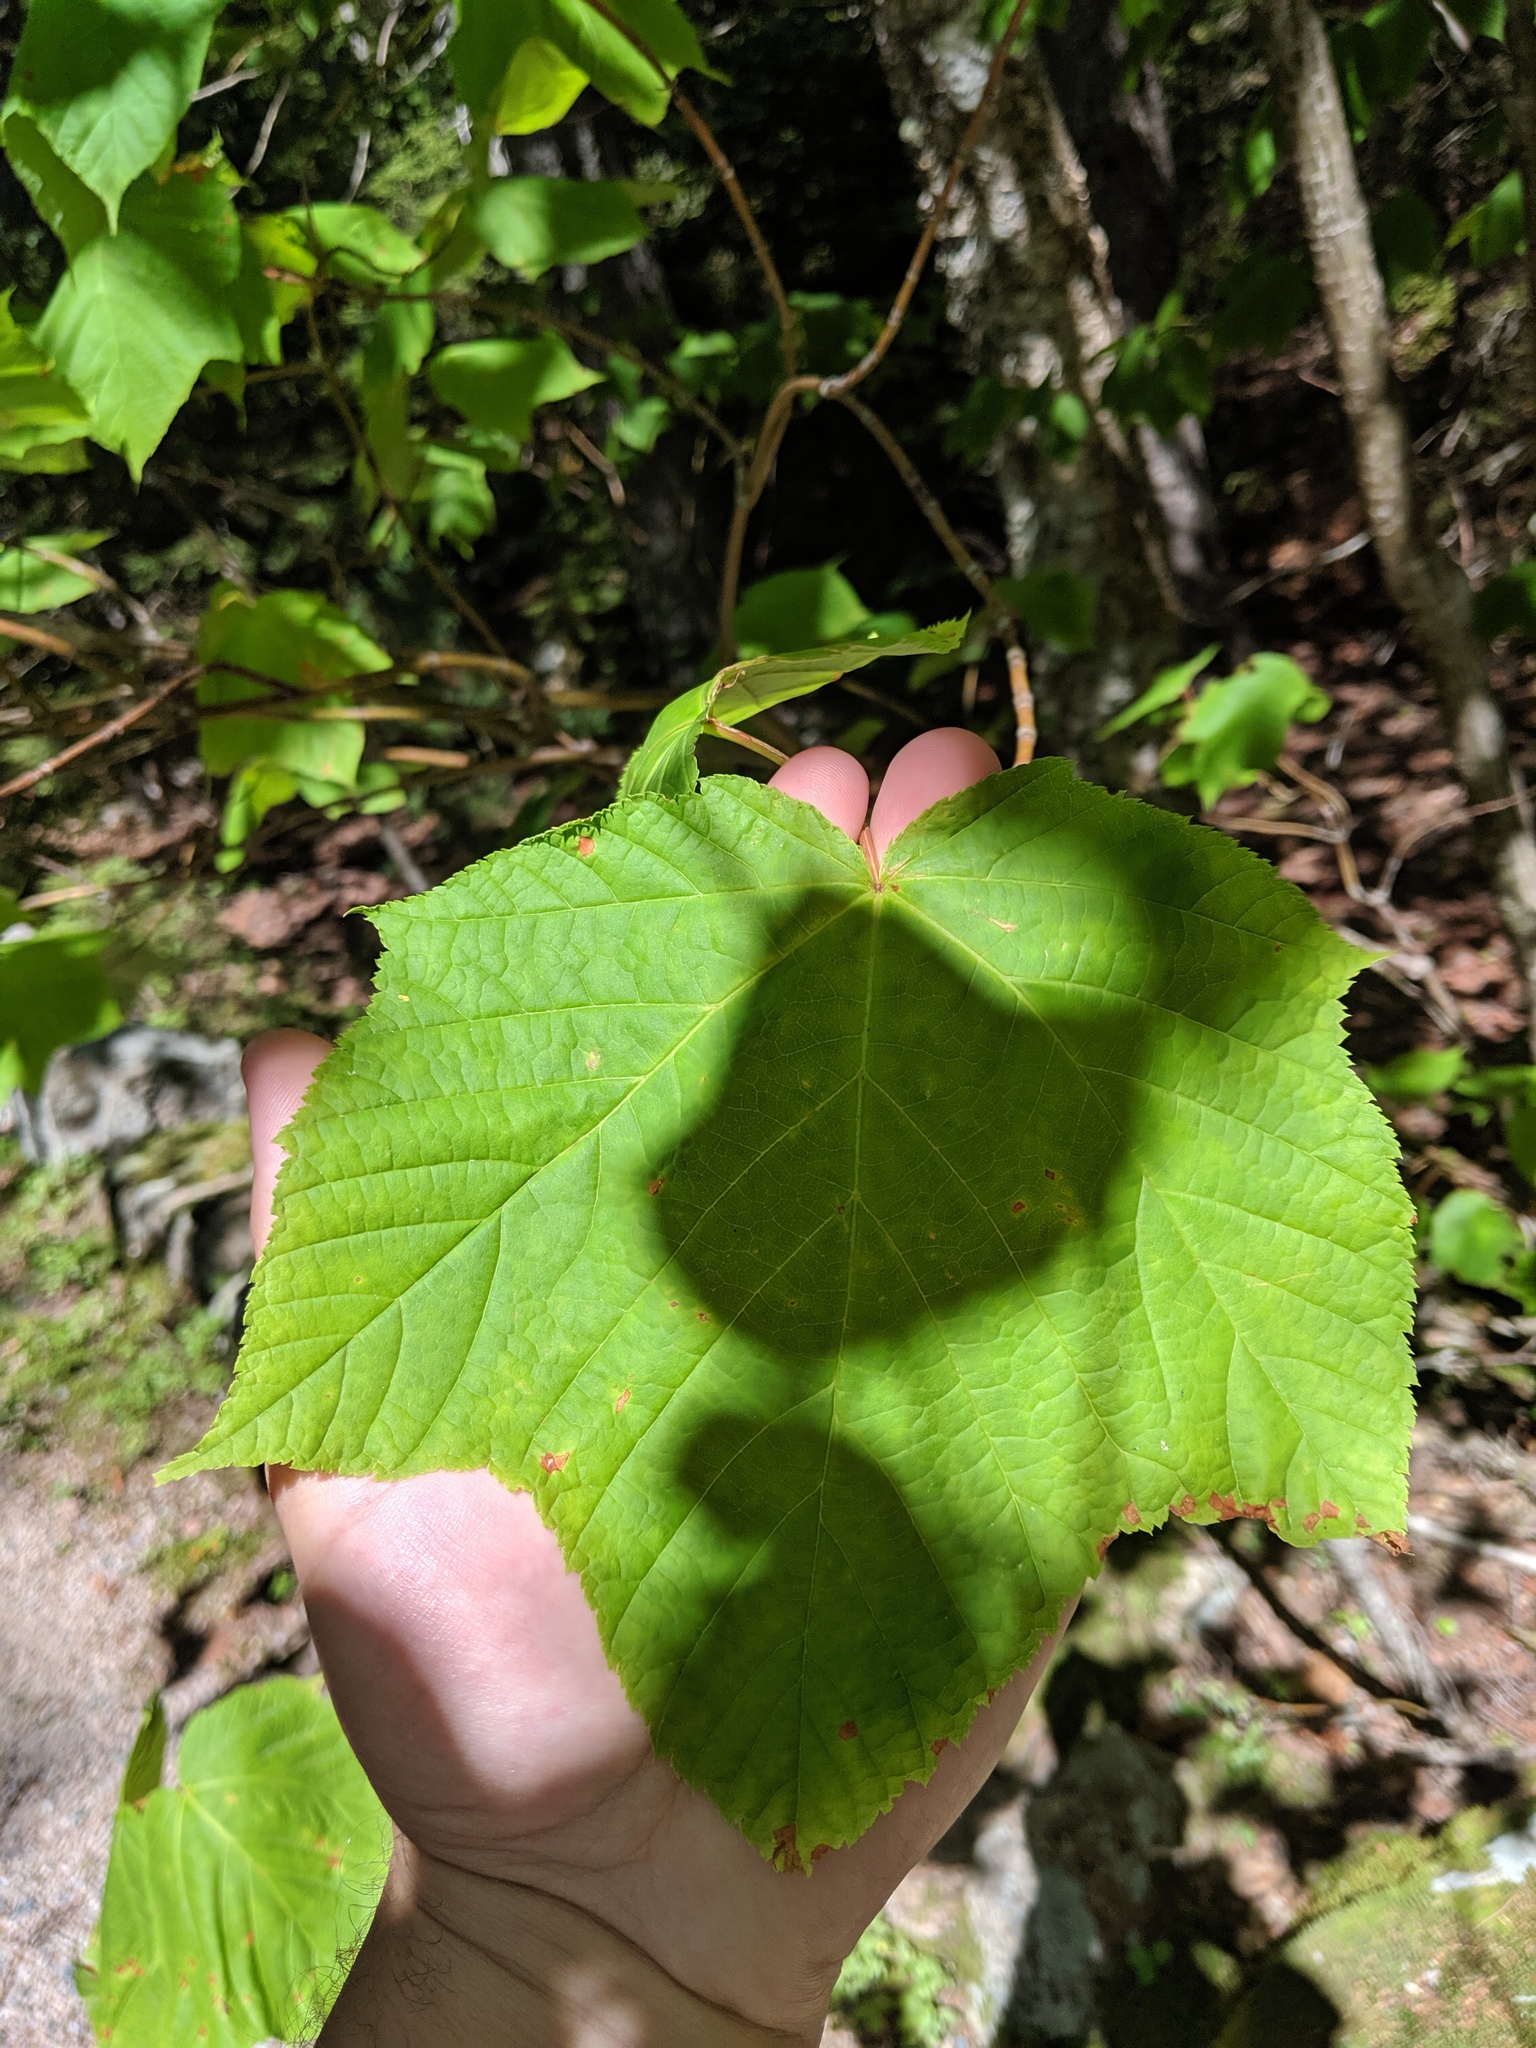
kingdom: Plantae
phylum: Tracheophyta
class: Magnoliopsida
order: Sapindales
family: Sapindaceae
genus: Acer
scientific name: Acer pensylvanicum
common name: Moosewood
